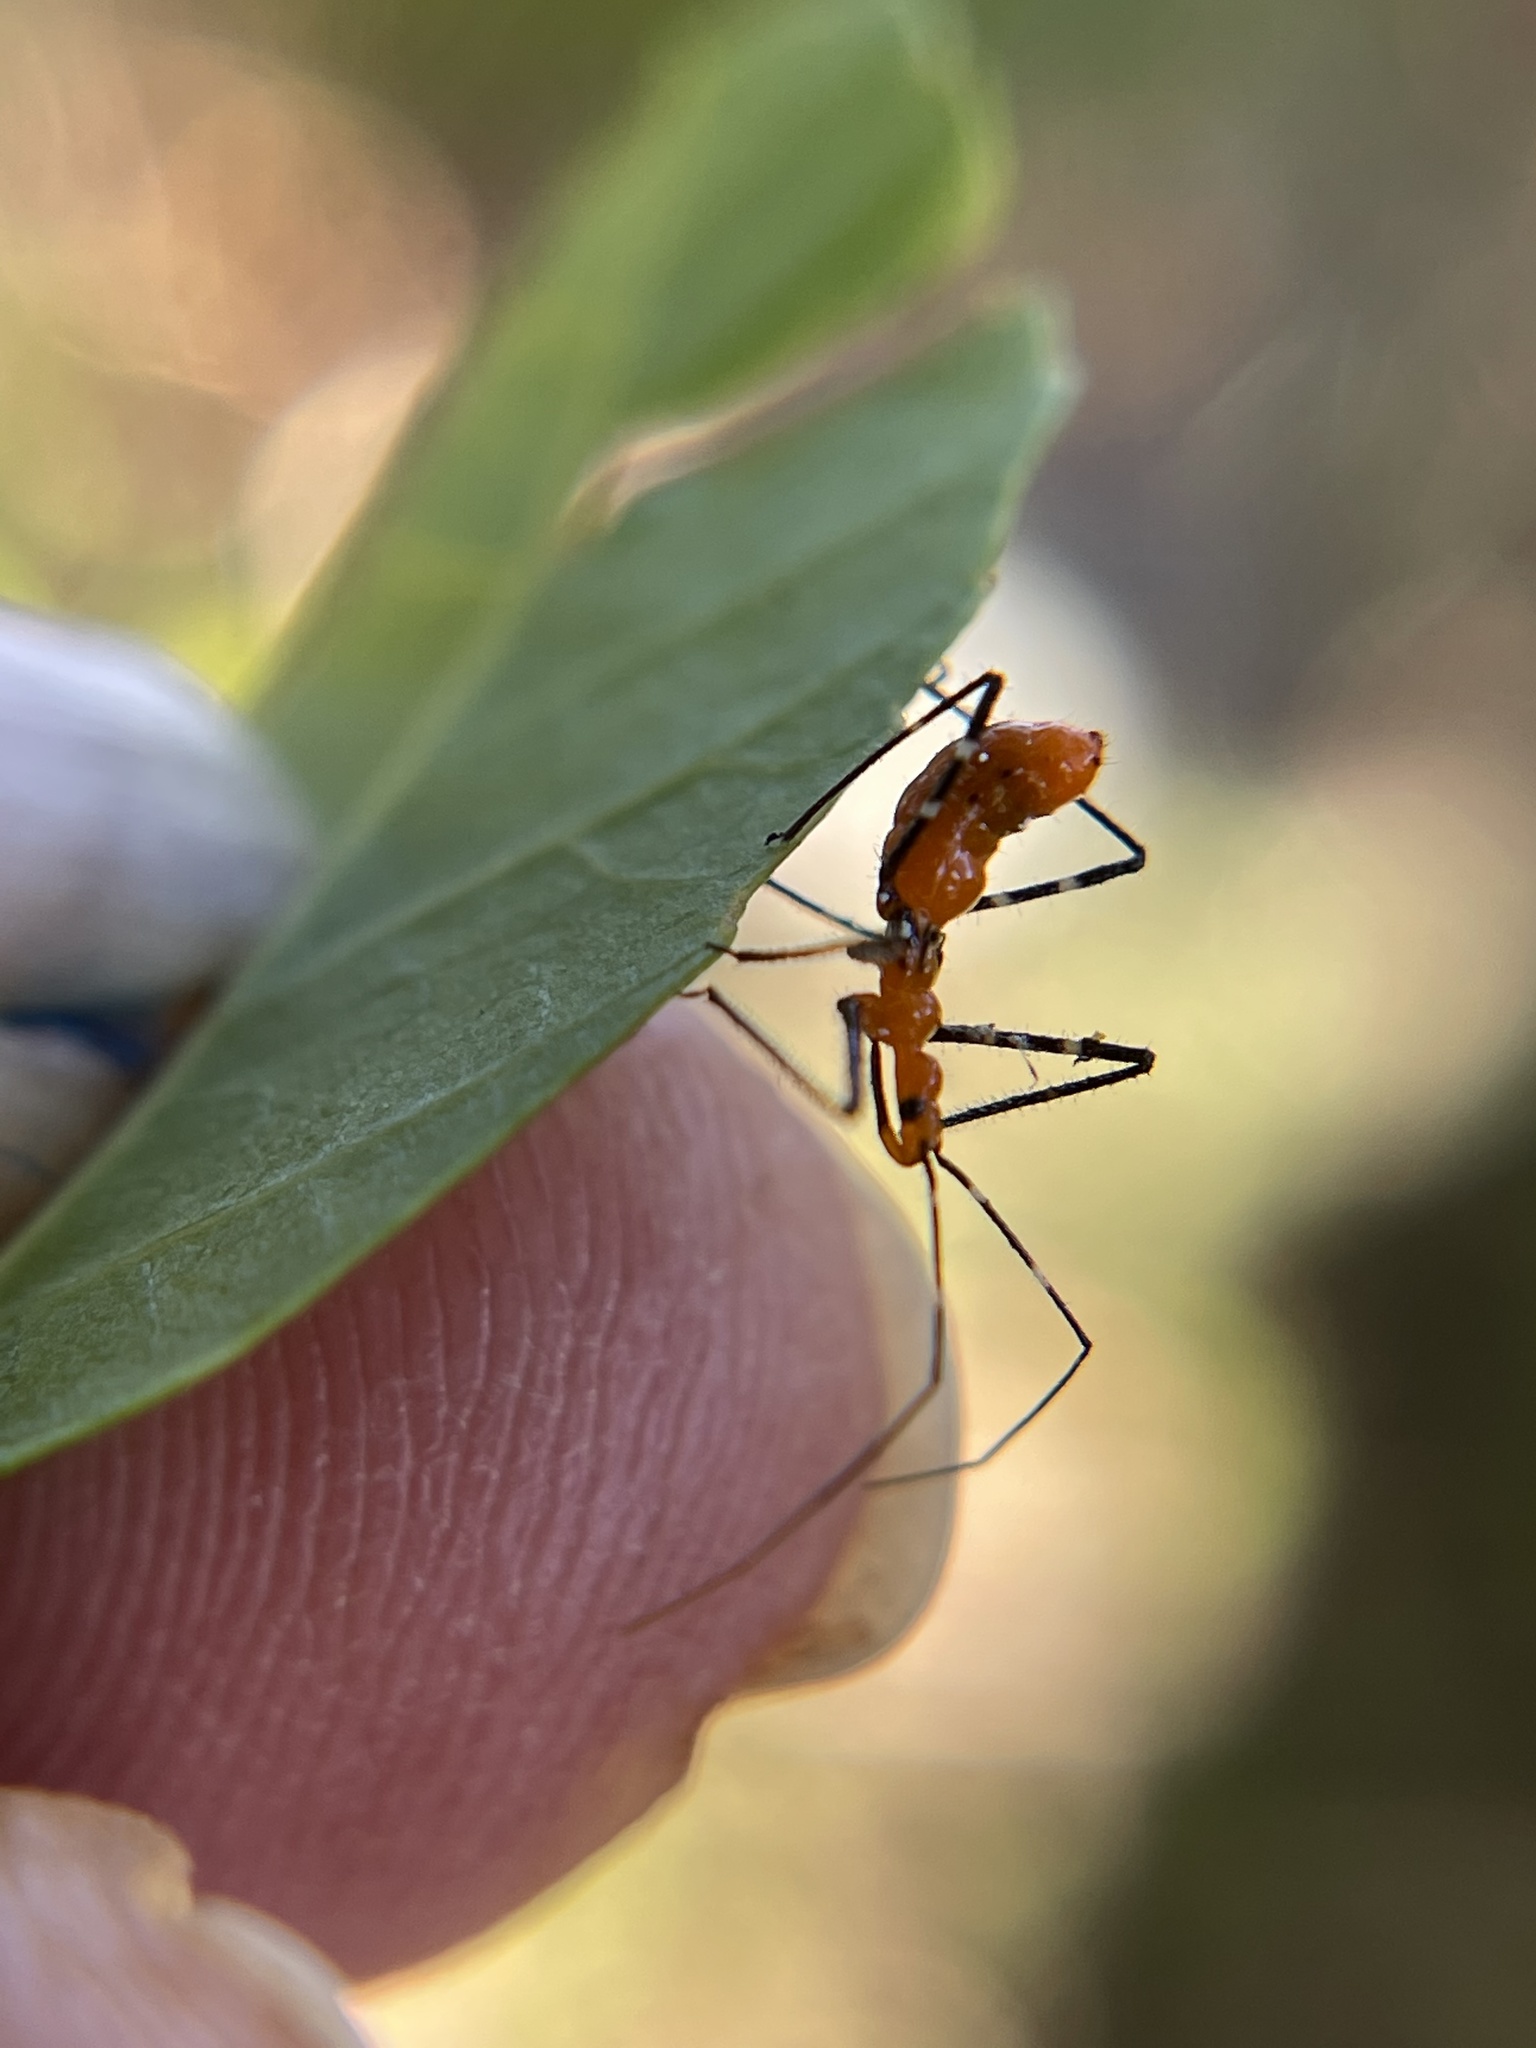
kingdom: Animalia
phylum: Arthropoda
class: Insecta
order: Hemiptera
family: Reduviidae
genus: Zelus
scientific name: Zelus longipes
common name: Milkweed assassin bug
